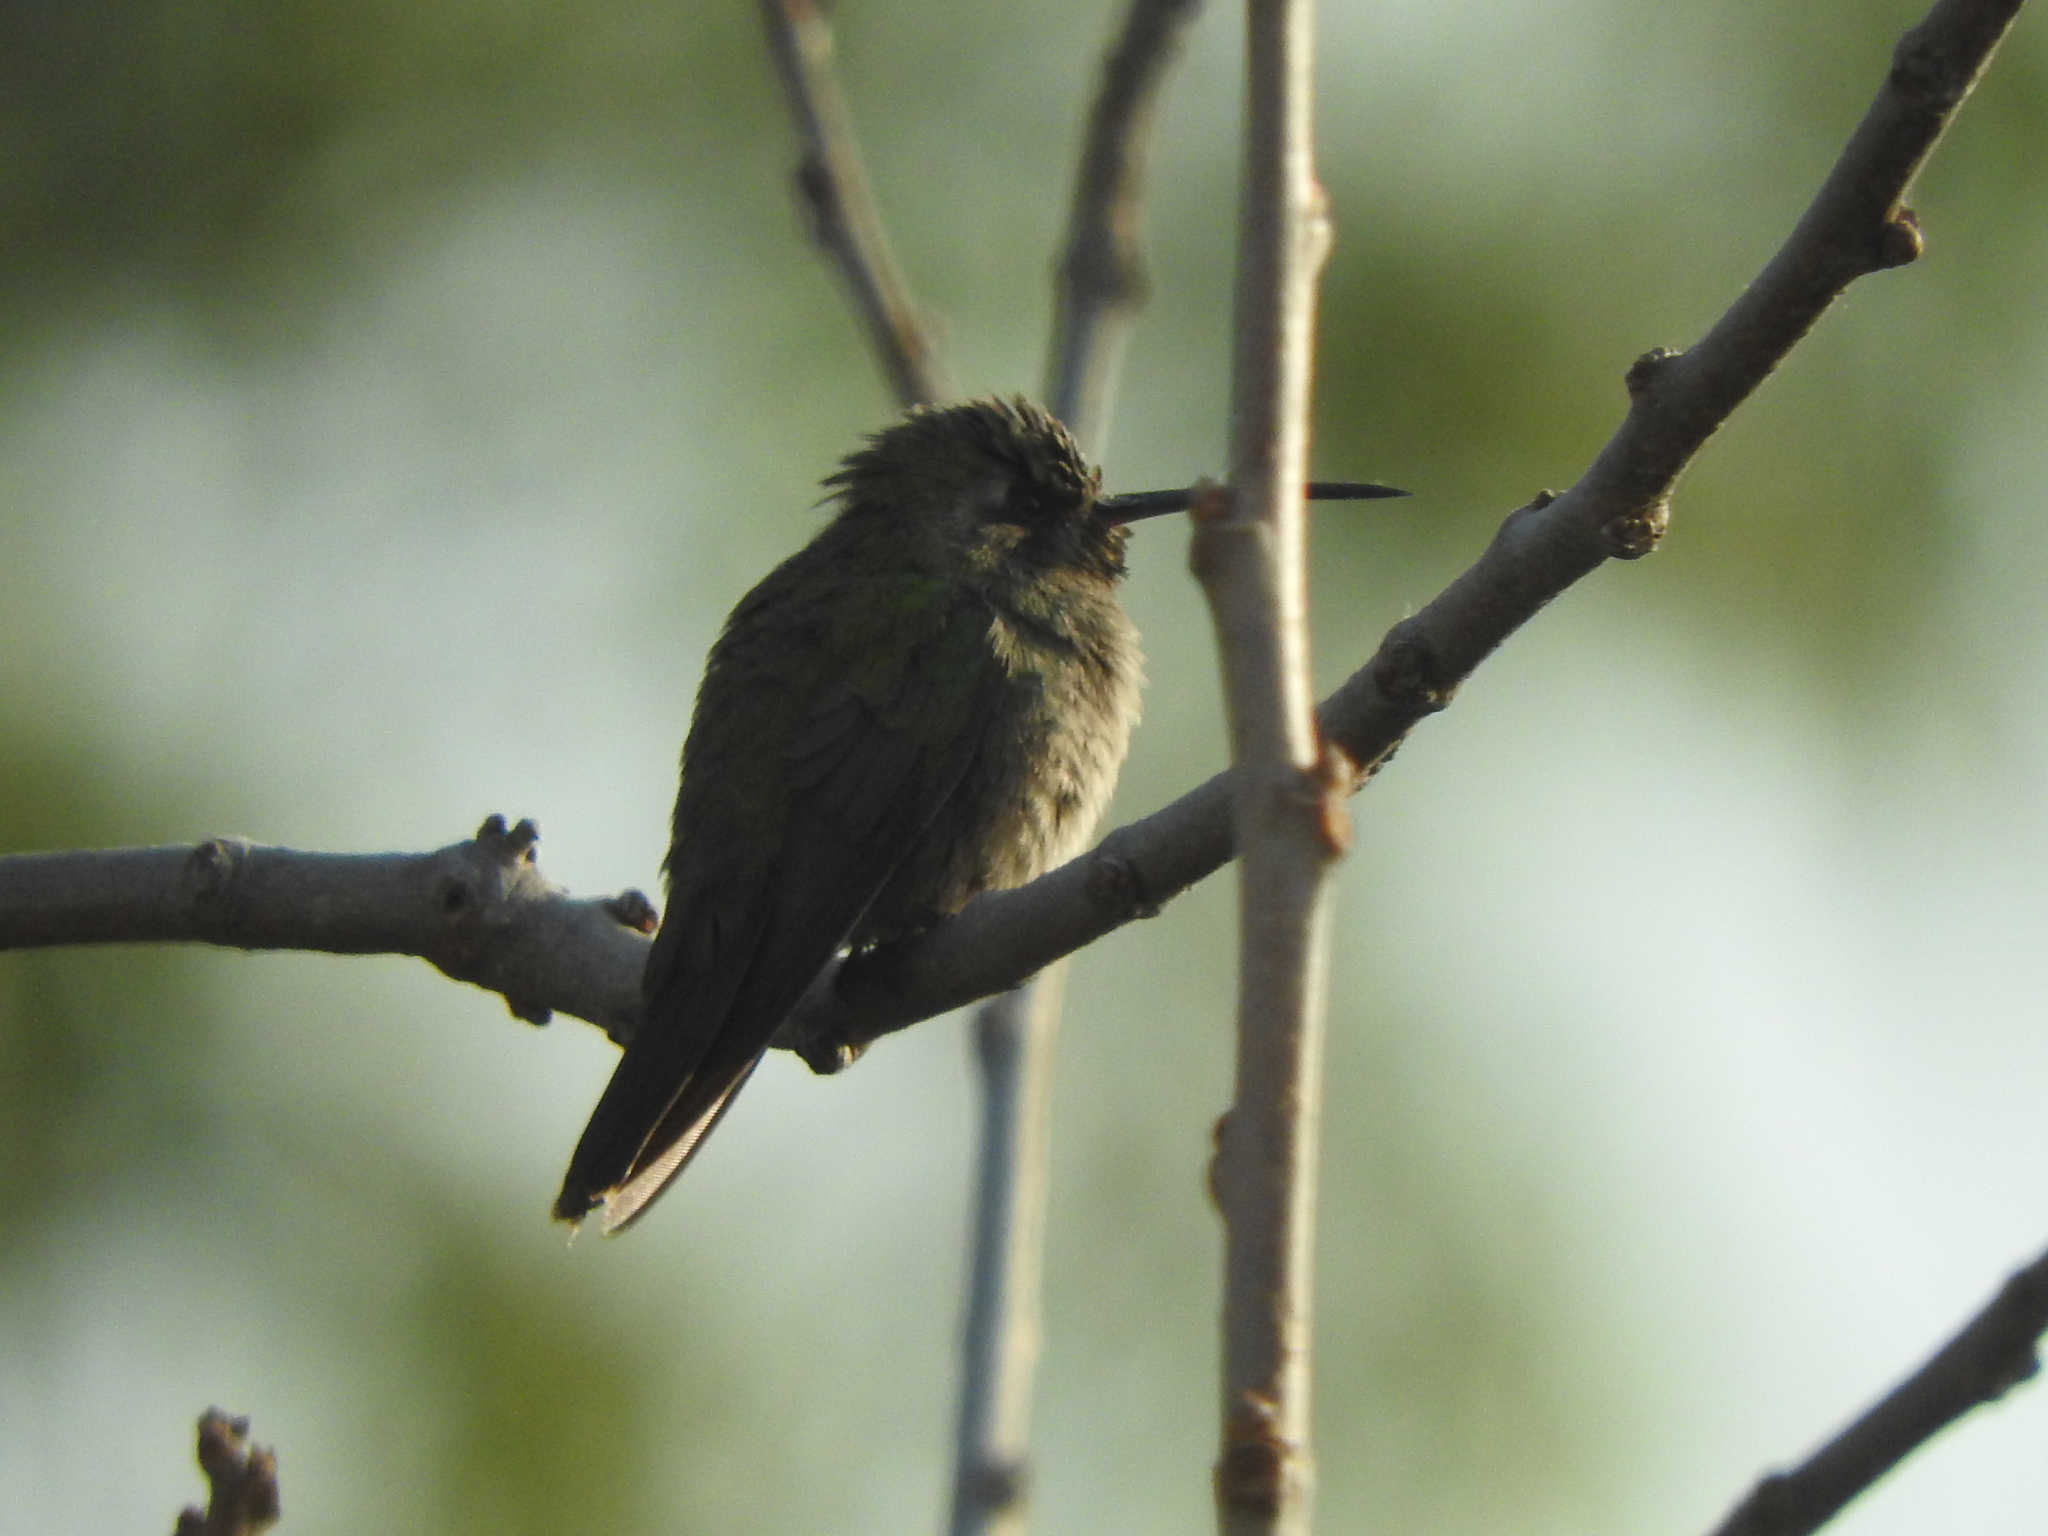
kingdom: Animalia
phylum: Chordata
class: Aves
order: Apodiformes
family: Trochilidae
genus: Cynanthus
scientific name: Cynanthus latirostris
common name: Broad-billed hummingbird
